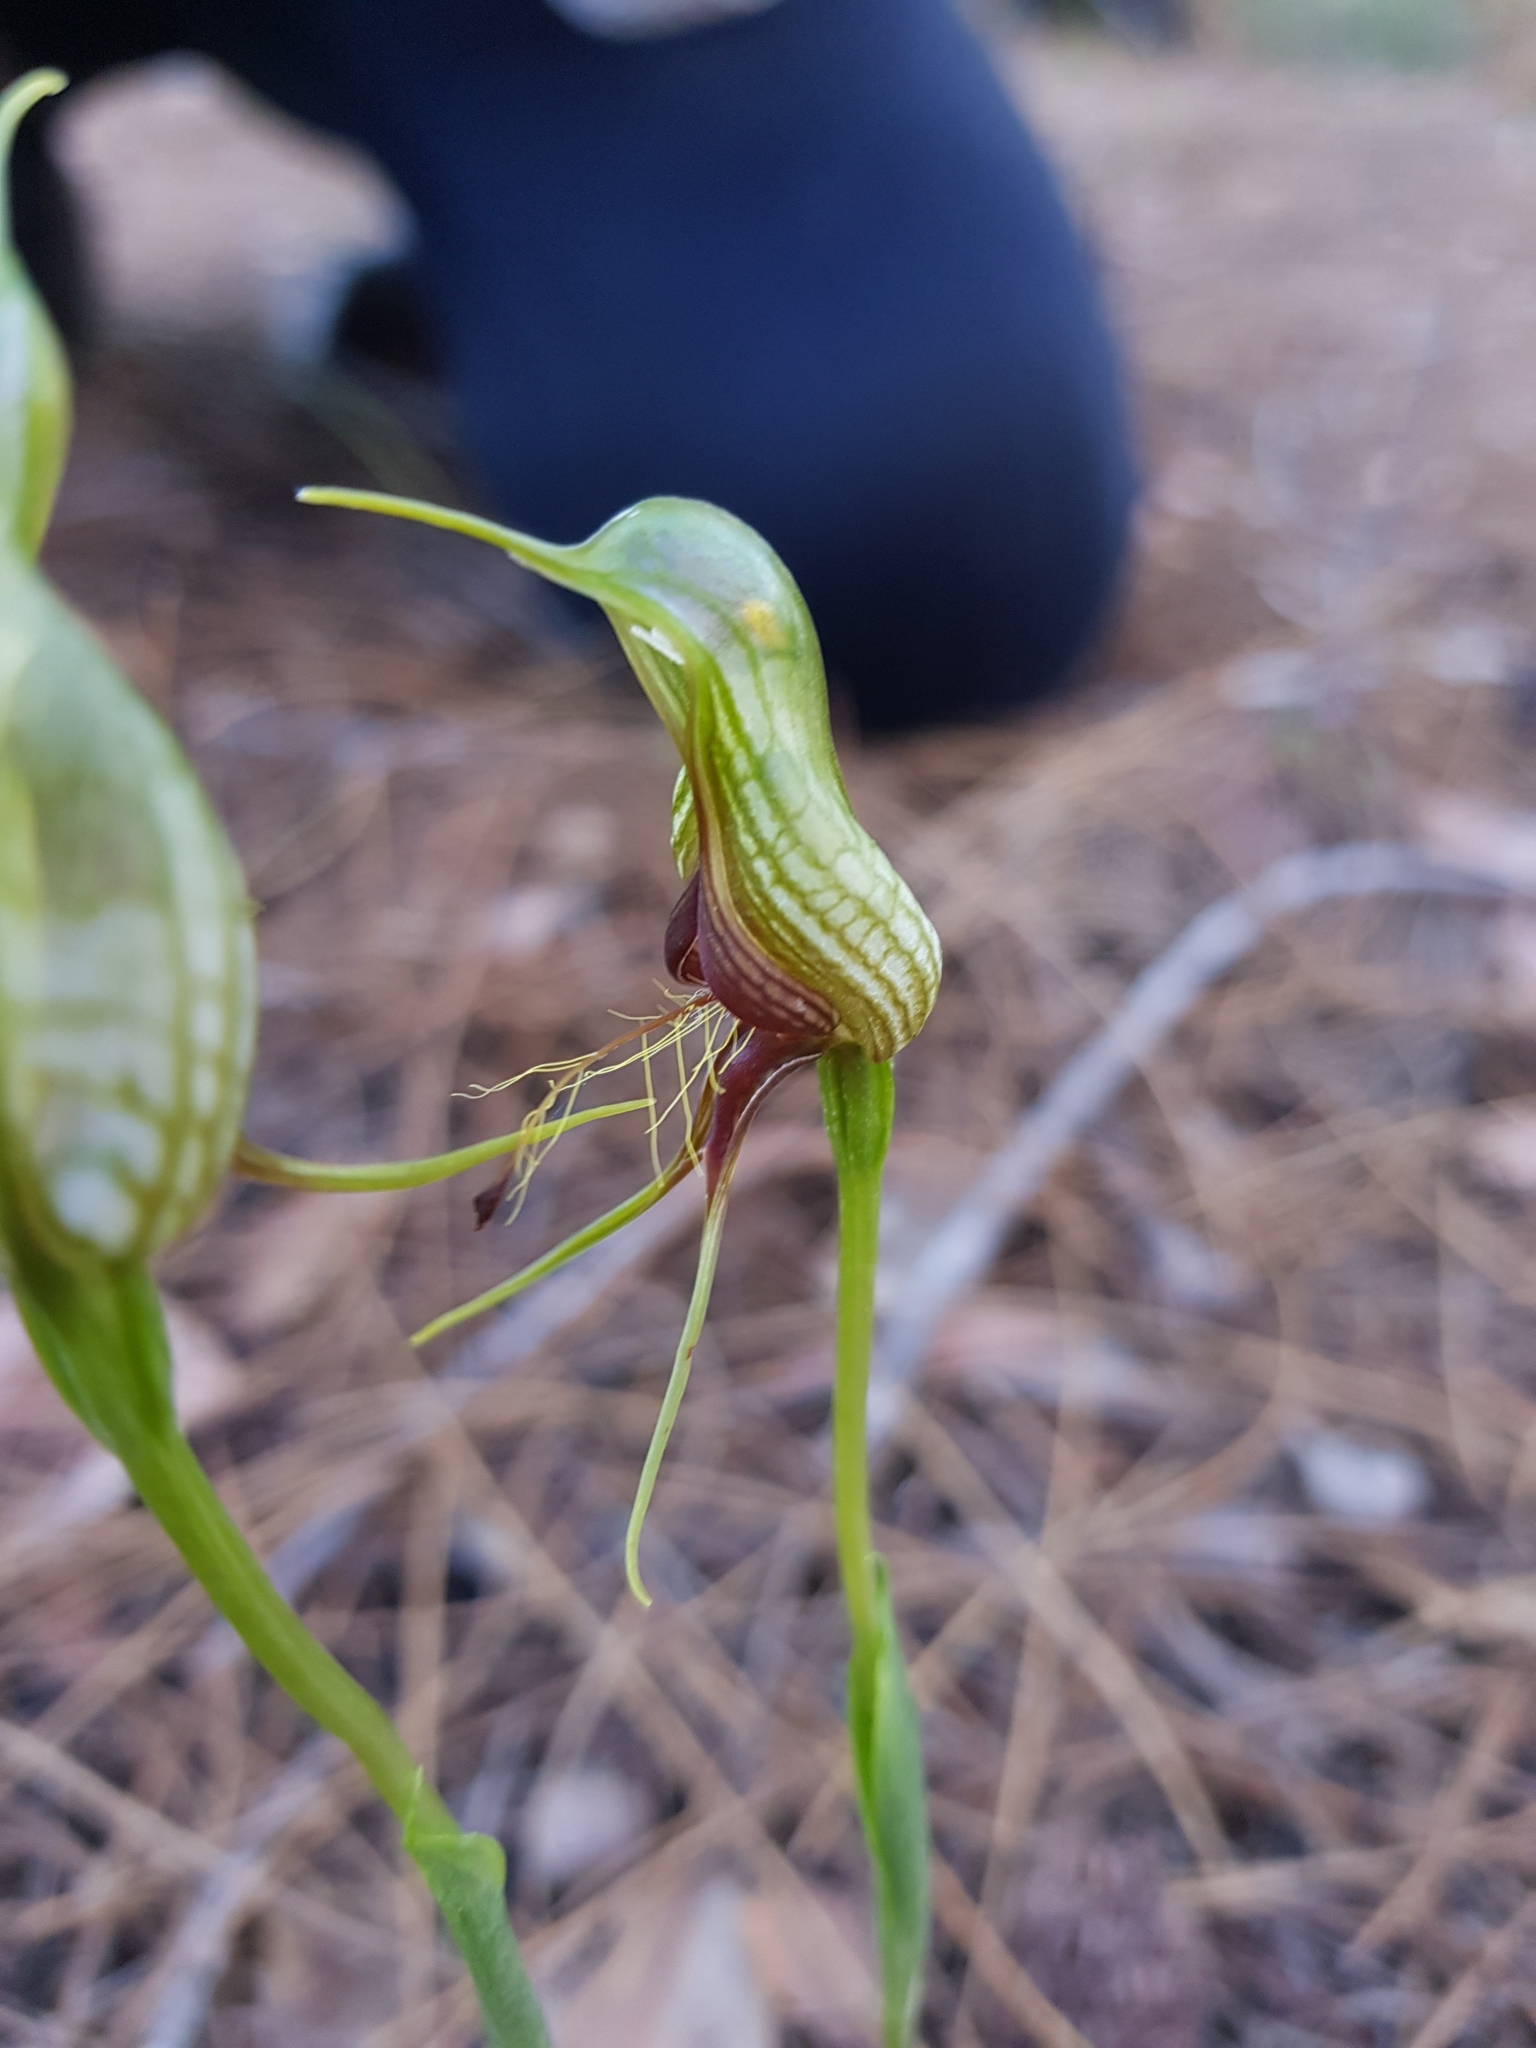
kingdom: Plantae
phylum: Tracheophyta
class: Liliopsida
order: Asparagales
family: Orchidaceae
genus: Pterostylis
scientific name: Pterostylis barbata
